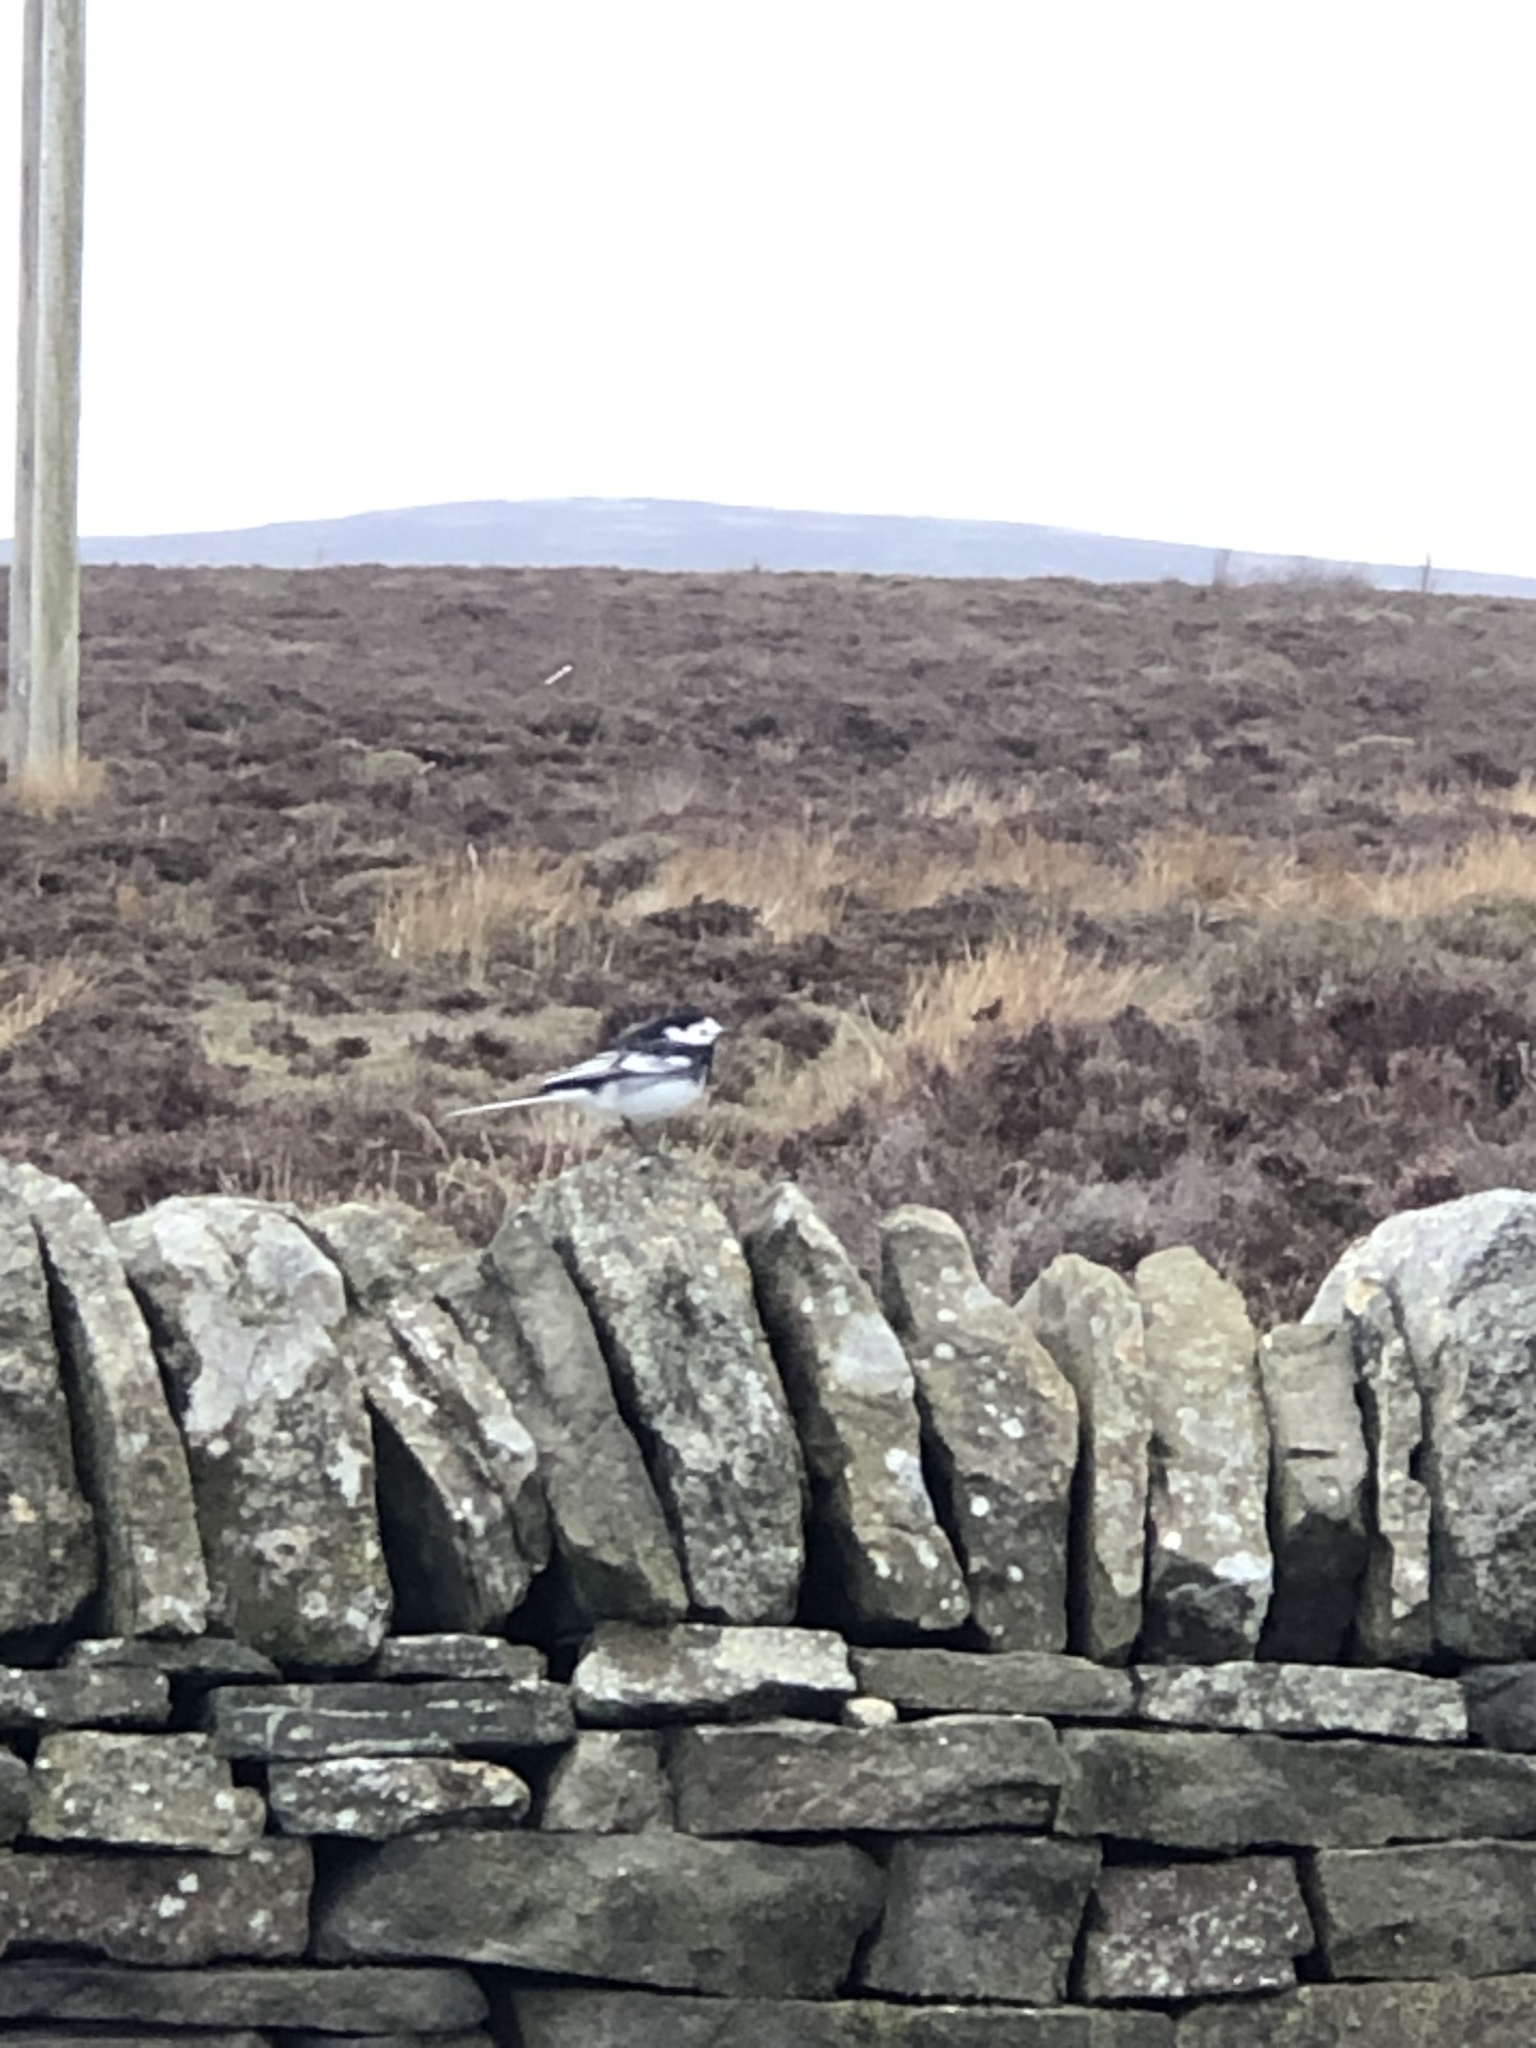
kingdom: Animalia
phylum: Chordata
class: Aves
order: Passeriformes
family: Motacillidae
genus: Motacilla
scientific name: Motacilla alba
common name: White wagtail
